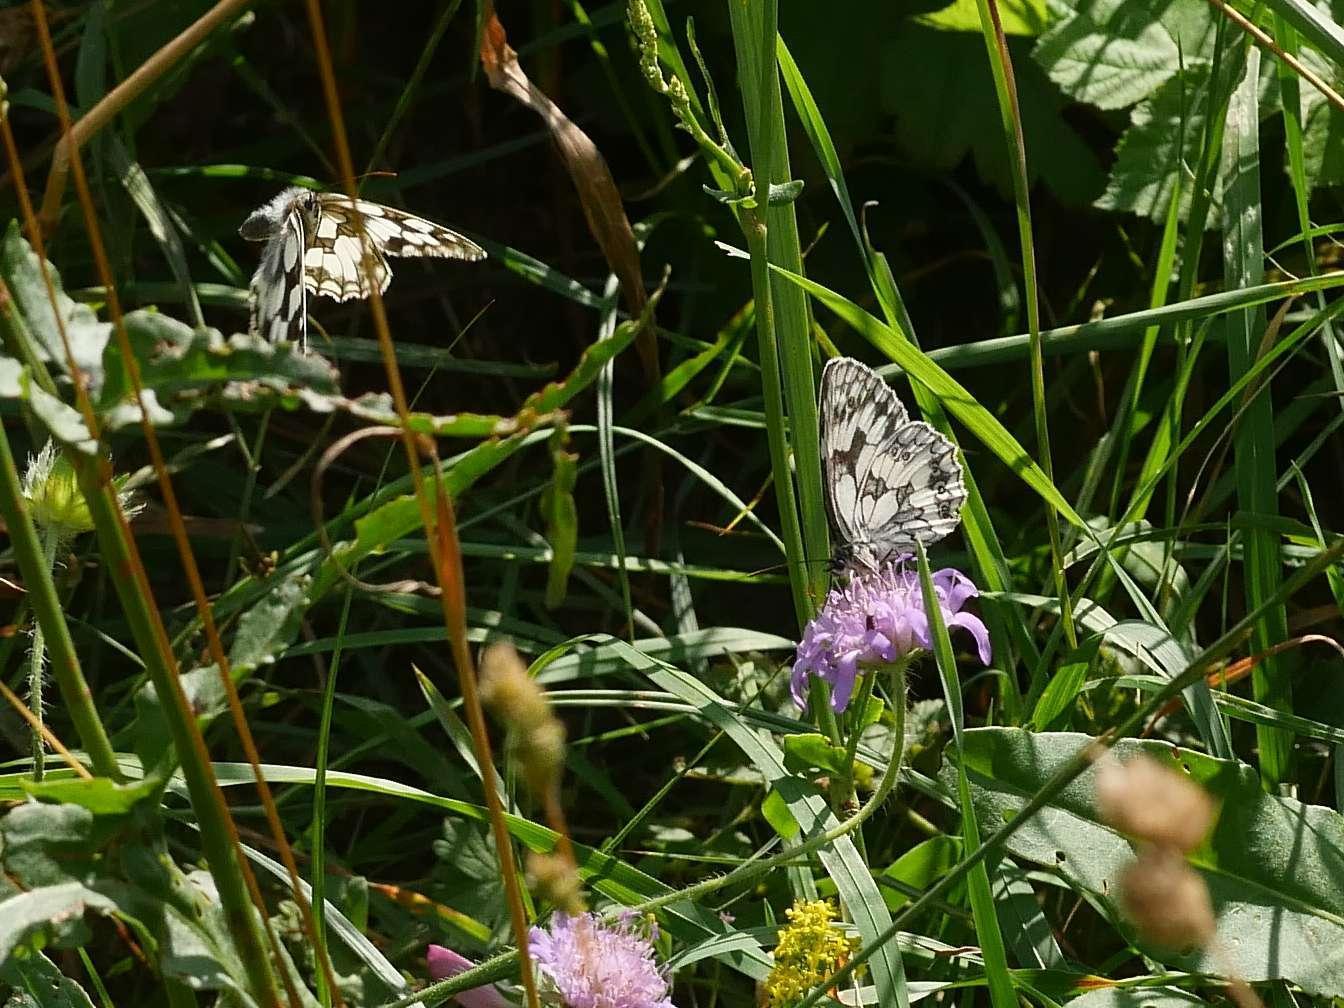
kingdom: Animalia
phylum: Arthropoda
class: Insecta
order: Lepidoptera
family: Nymphalidae
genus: Melanargia
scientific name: Melanargia galathea
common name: Marbled white
